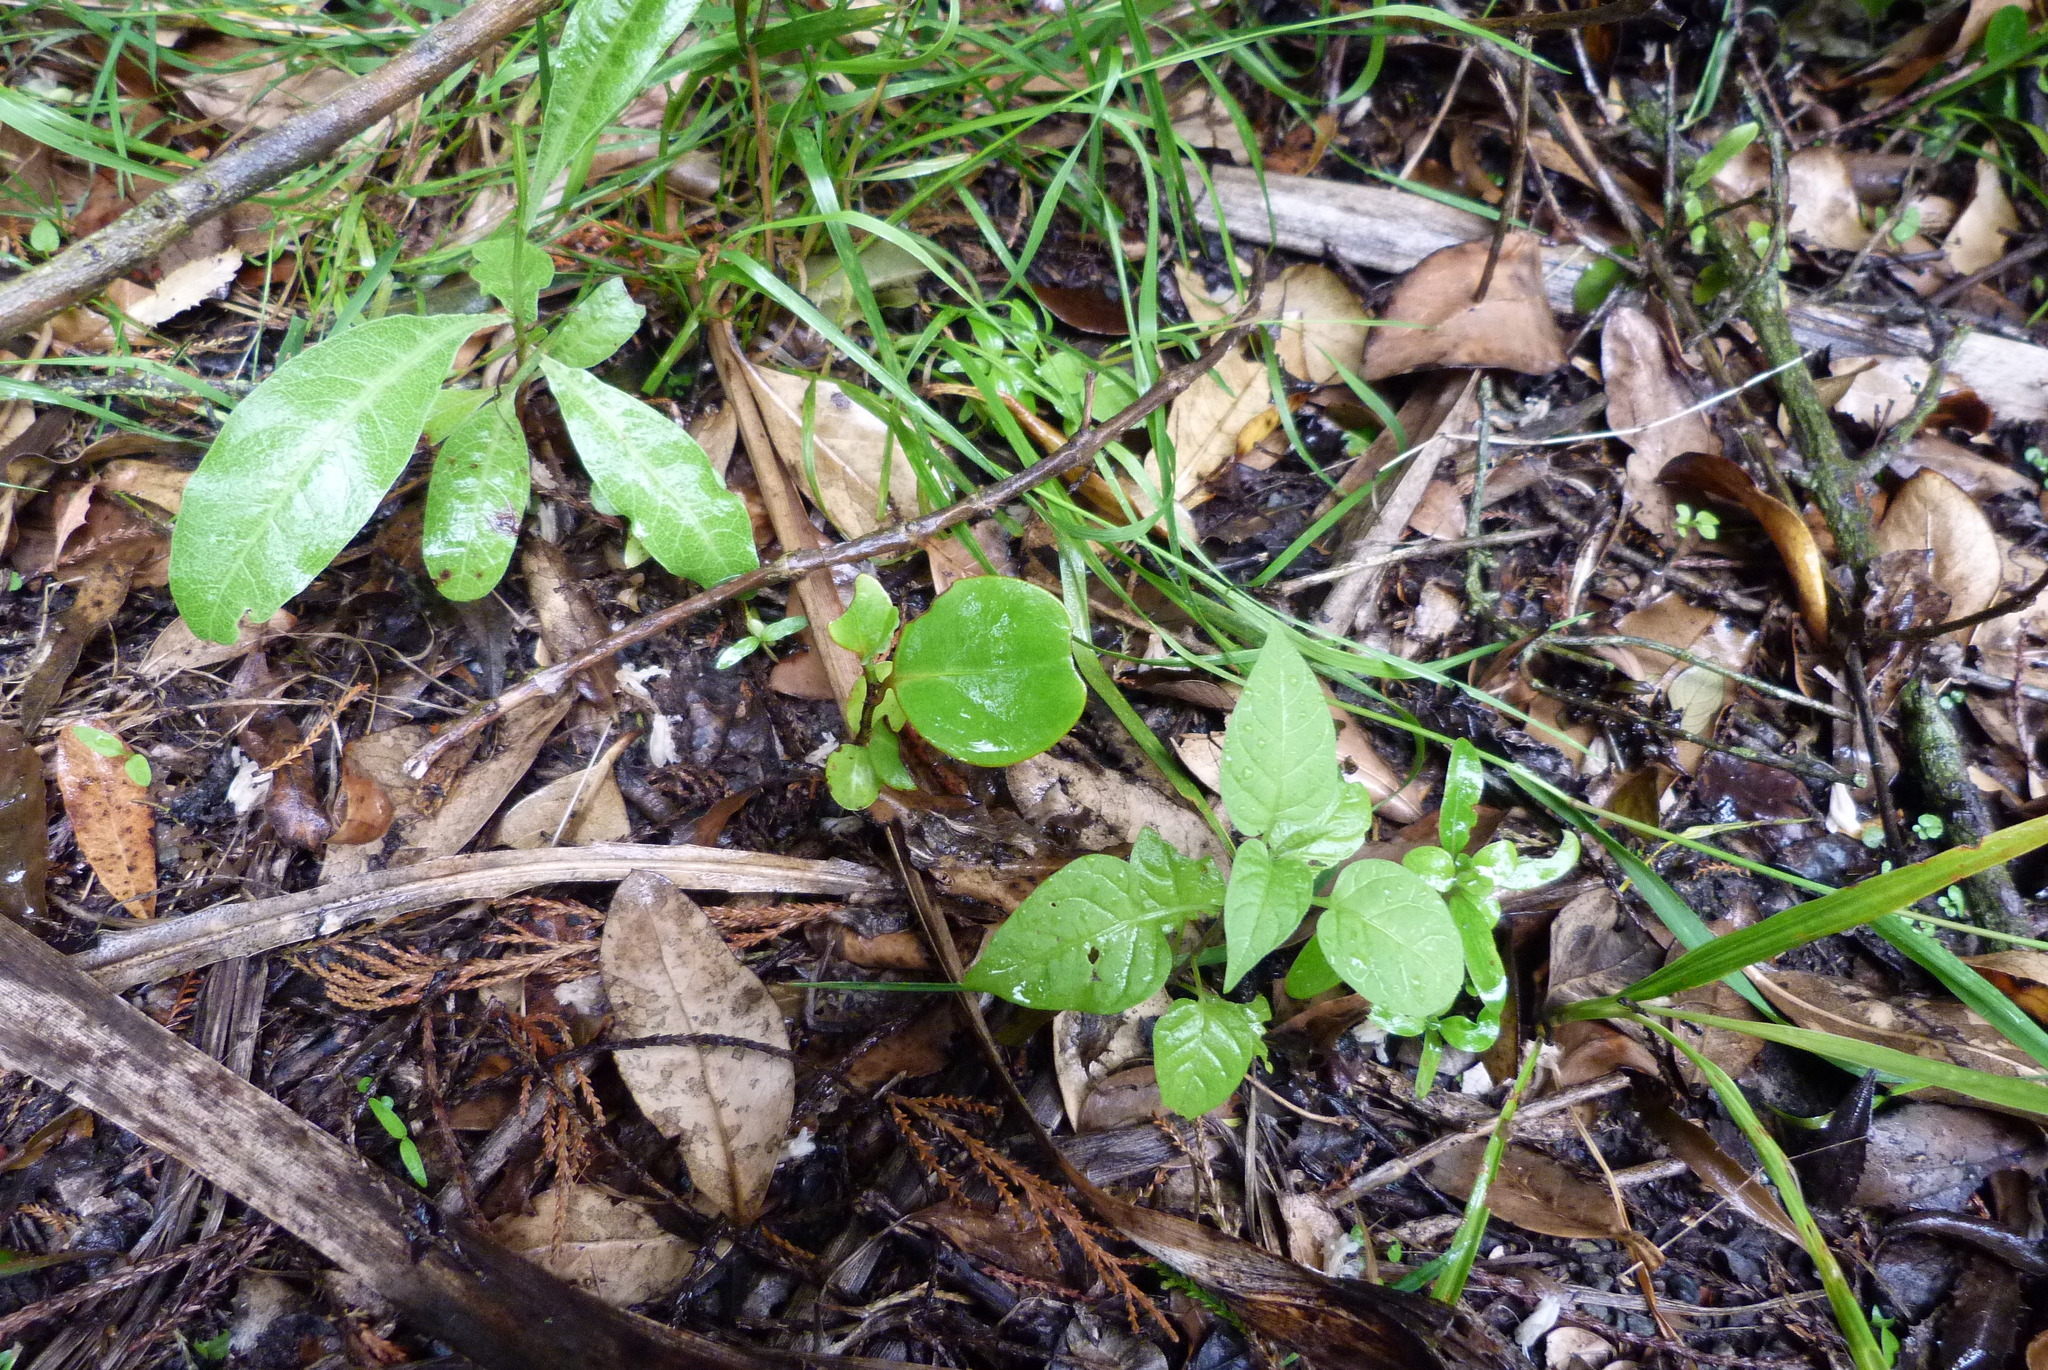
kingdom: Plantae
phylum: Tracheophyta
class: Magnoliopsida
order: Apiales
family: Griseliniaceae
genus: Griselinia
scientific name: Griselinia littoralis
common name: New zealand broadleaf
